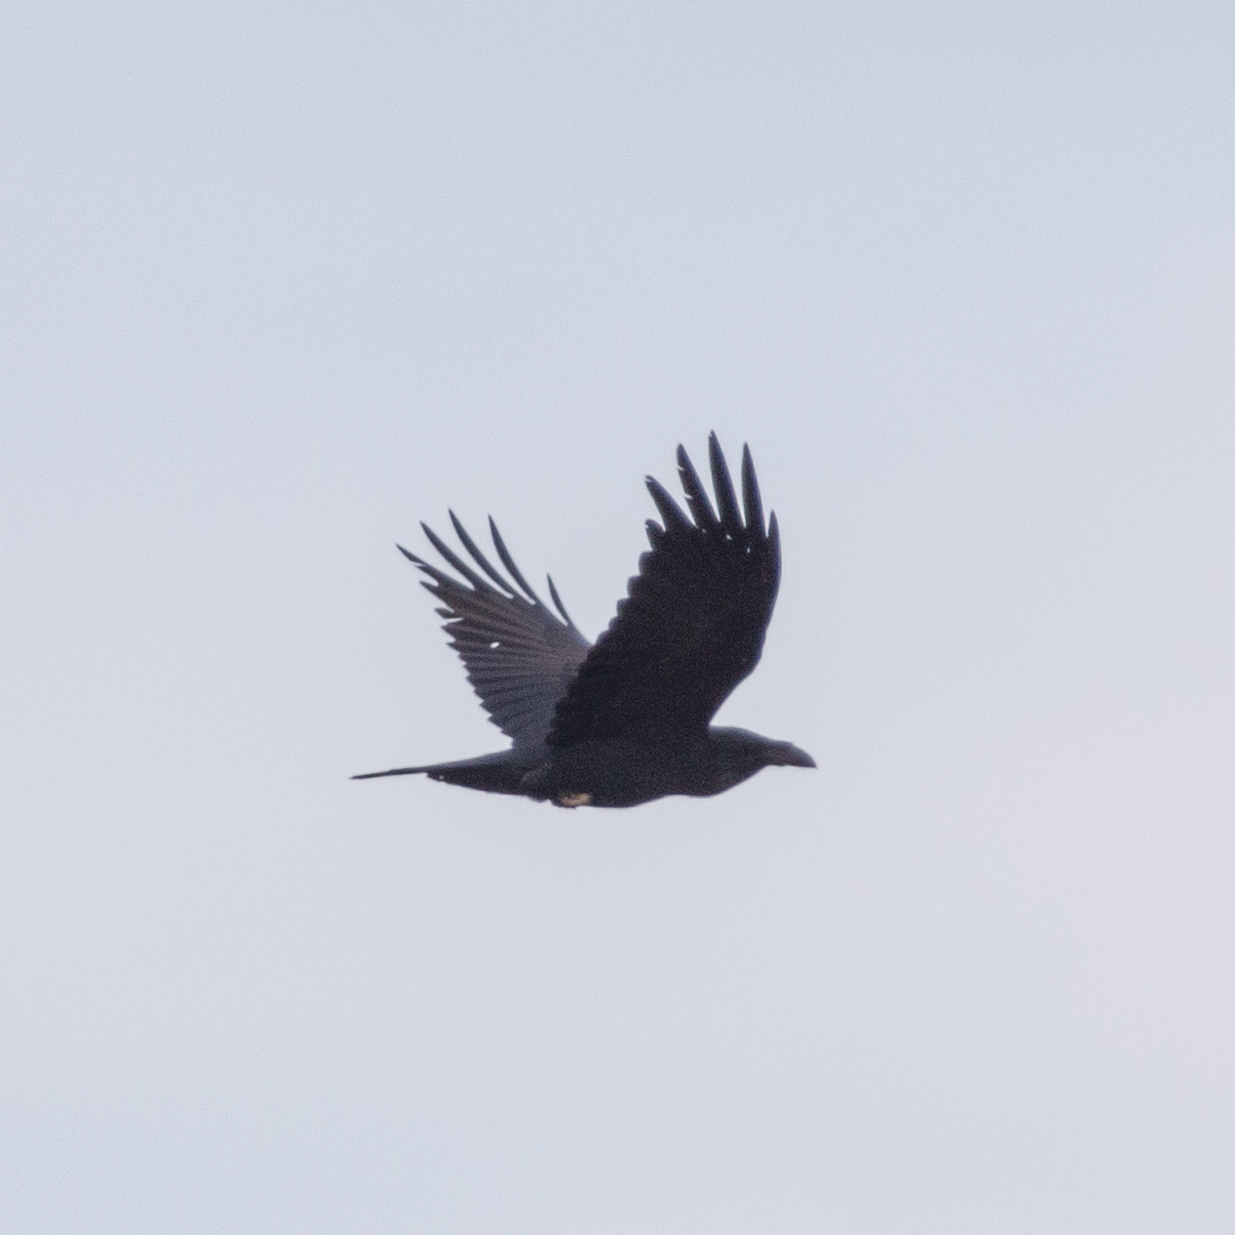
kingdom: Animalia
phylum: Chordata
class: Aves
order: Passeriformes
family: Corvidae
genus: Corvus
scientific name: Corvus corax
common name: Common raven
